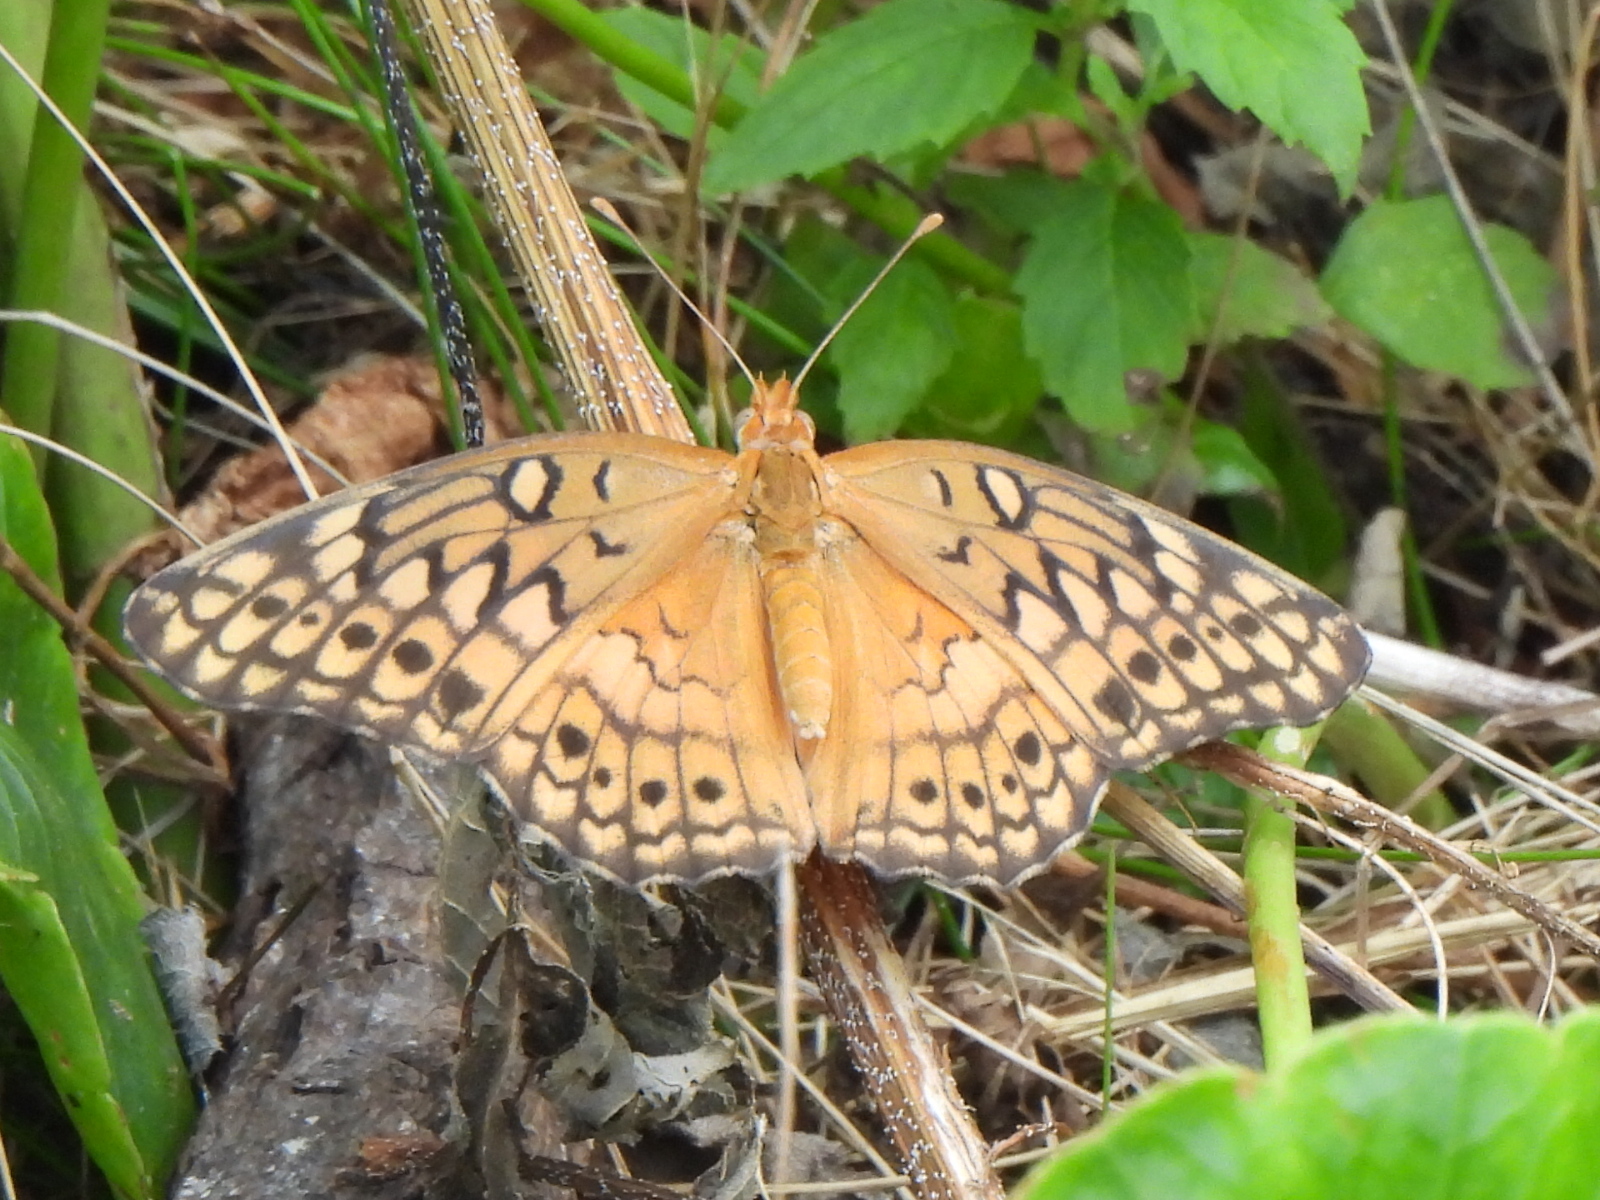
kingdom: Animalia
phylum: Arthropoda
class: Insecta
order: Lepidoptera
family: Nymphalidae
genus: Euptoieta
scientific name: Euptoieta claudia
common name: Variegated fritillary
